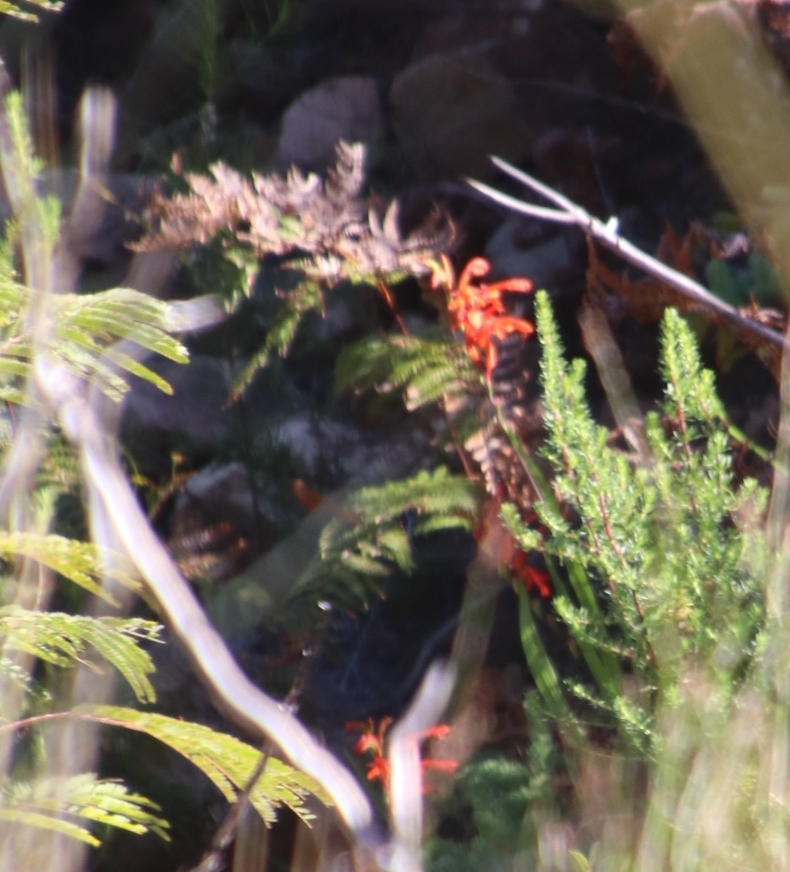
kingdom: Plantae
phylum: Tracheophyta
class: Liliopsida
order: Asparagales
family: Iridaceae
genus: Chasmanthe
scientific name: Chasmanthe aethiopica
